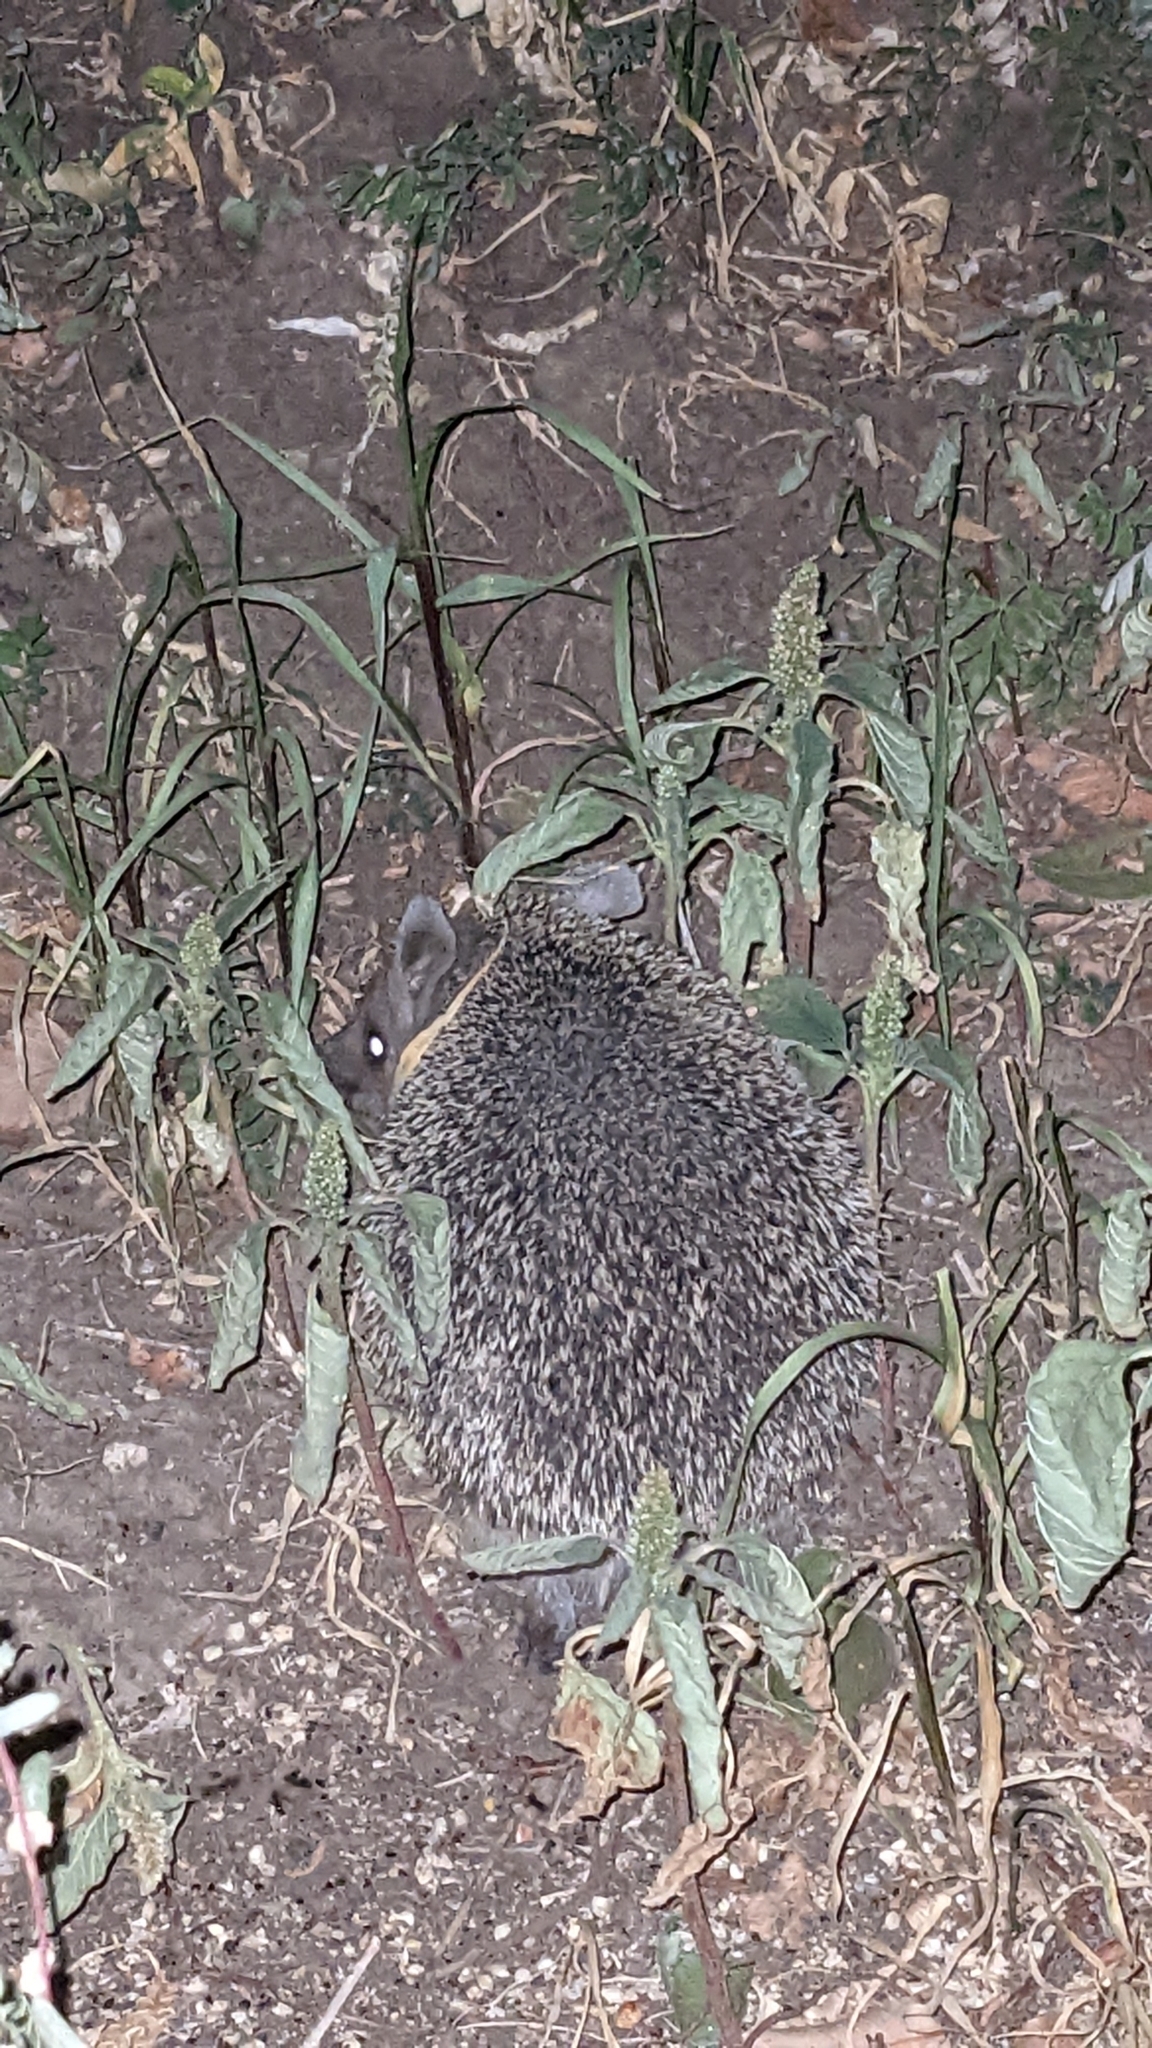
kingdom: Animalia
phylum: Chordata
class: Mammalia
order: Erinaceomorpha
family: Erinaceidae
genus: Hemiechinus
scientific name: Hemiechinus auritus
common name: Long-eared hedgehog
